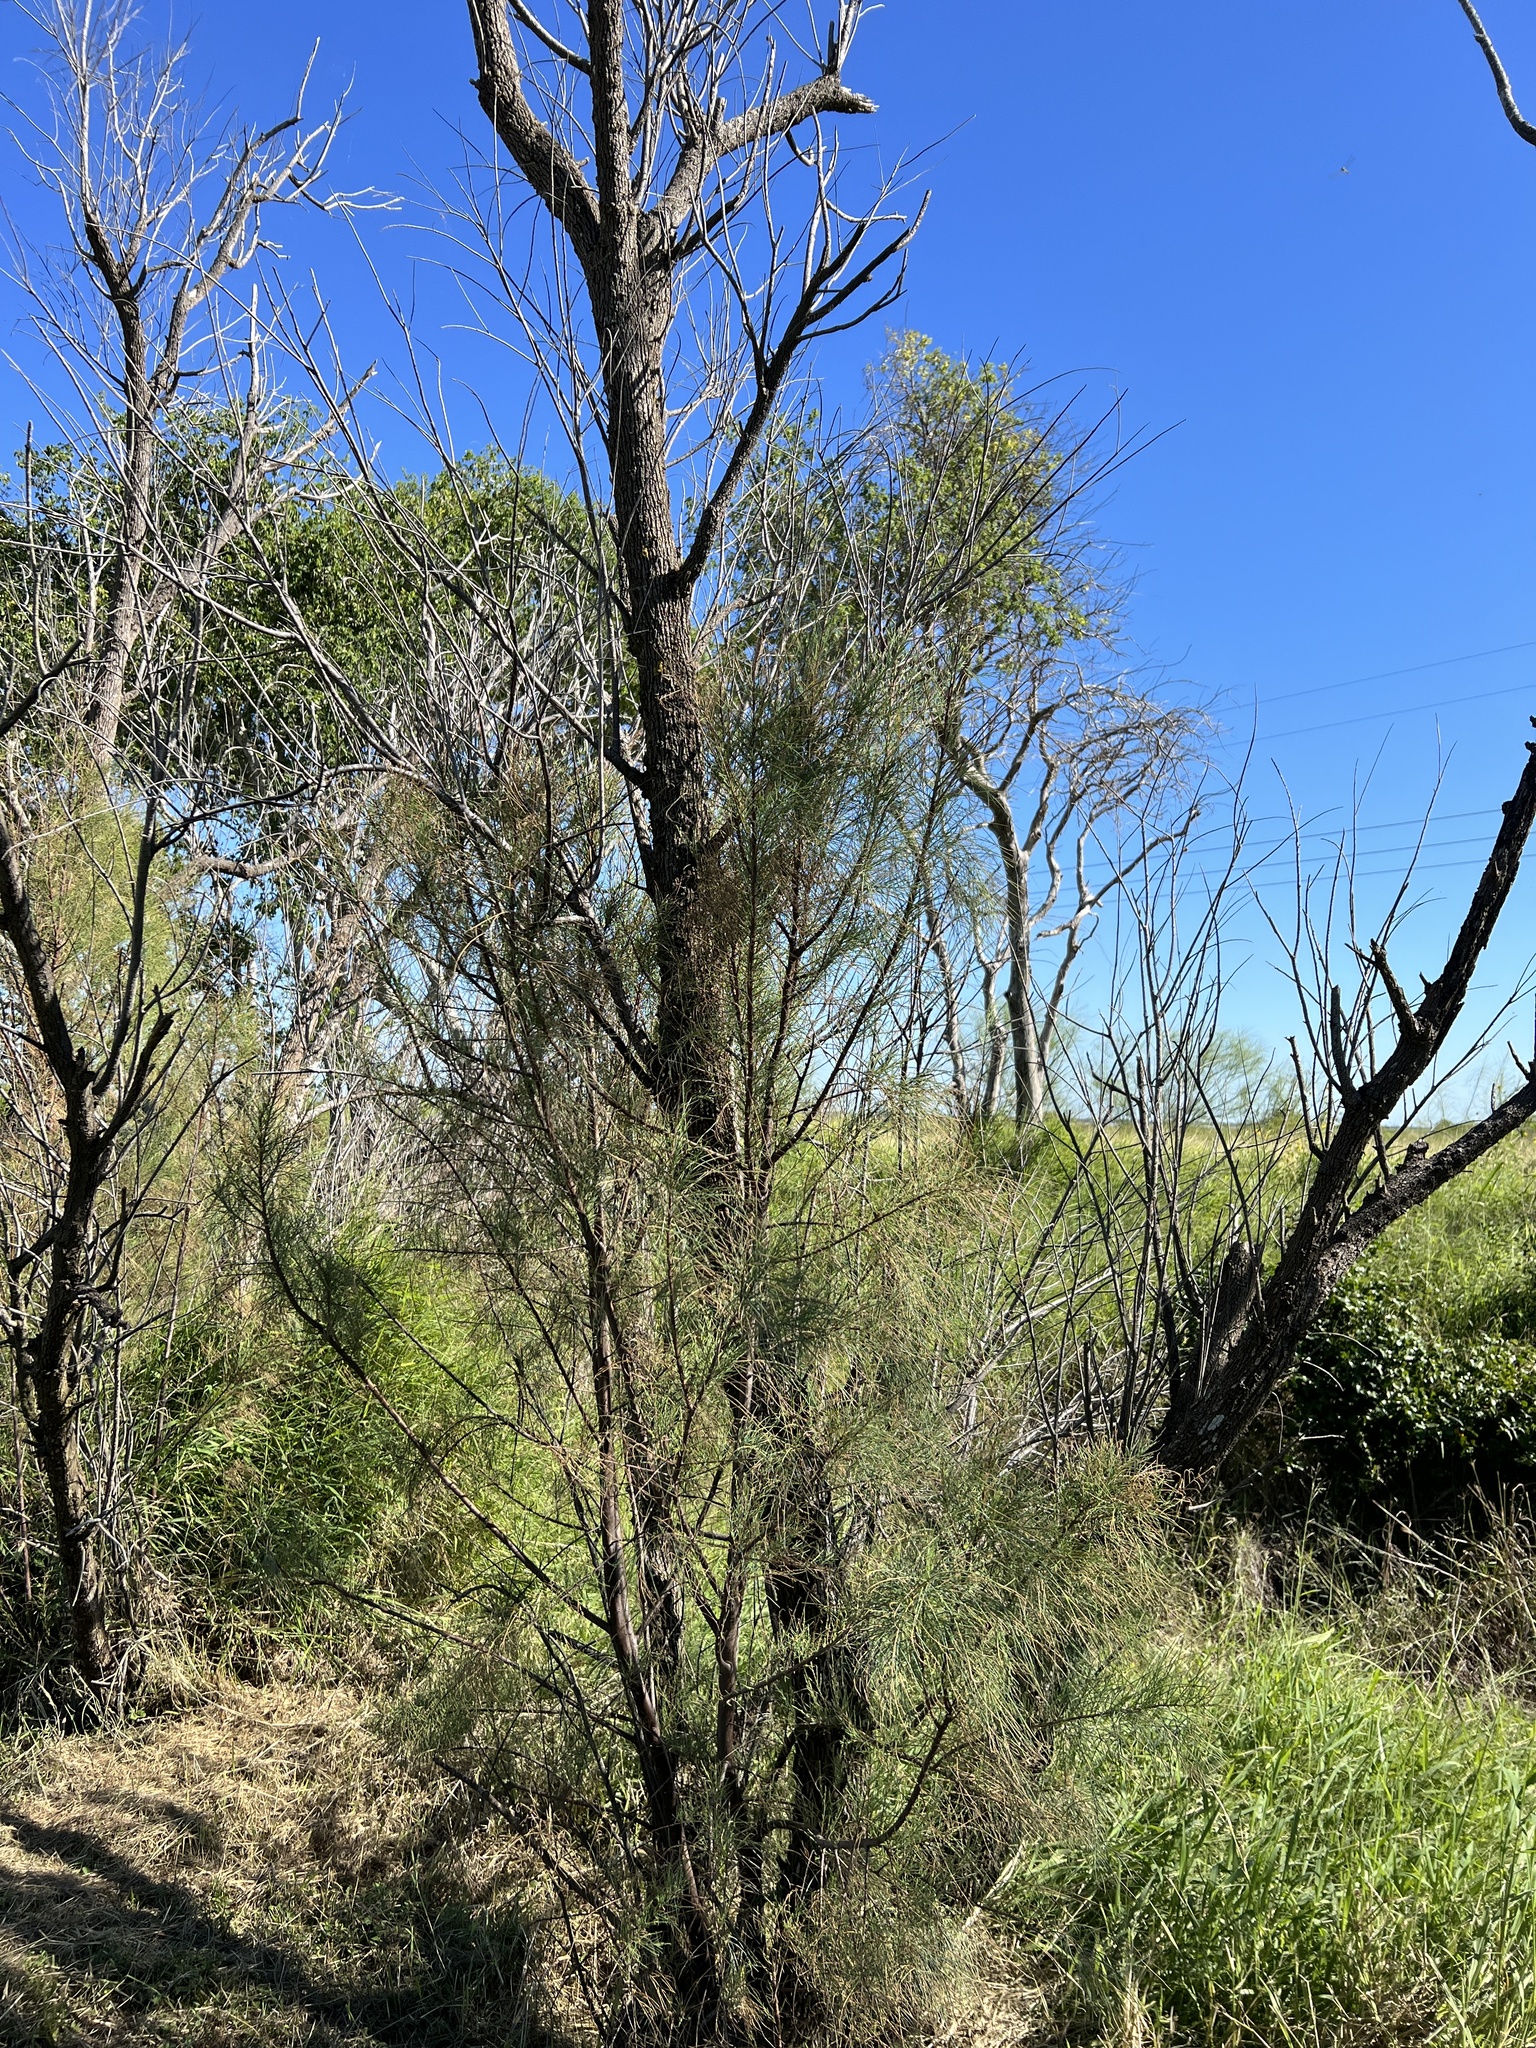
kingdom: Plantae
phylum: Tracheophyta
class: Magnoliopsida
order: Caryophyllales
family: Tamaricaceae
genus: Tamarix
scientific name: Tamarix
